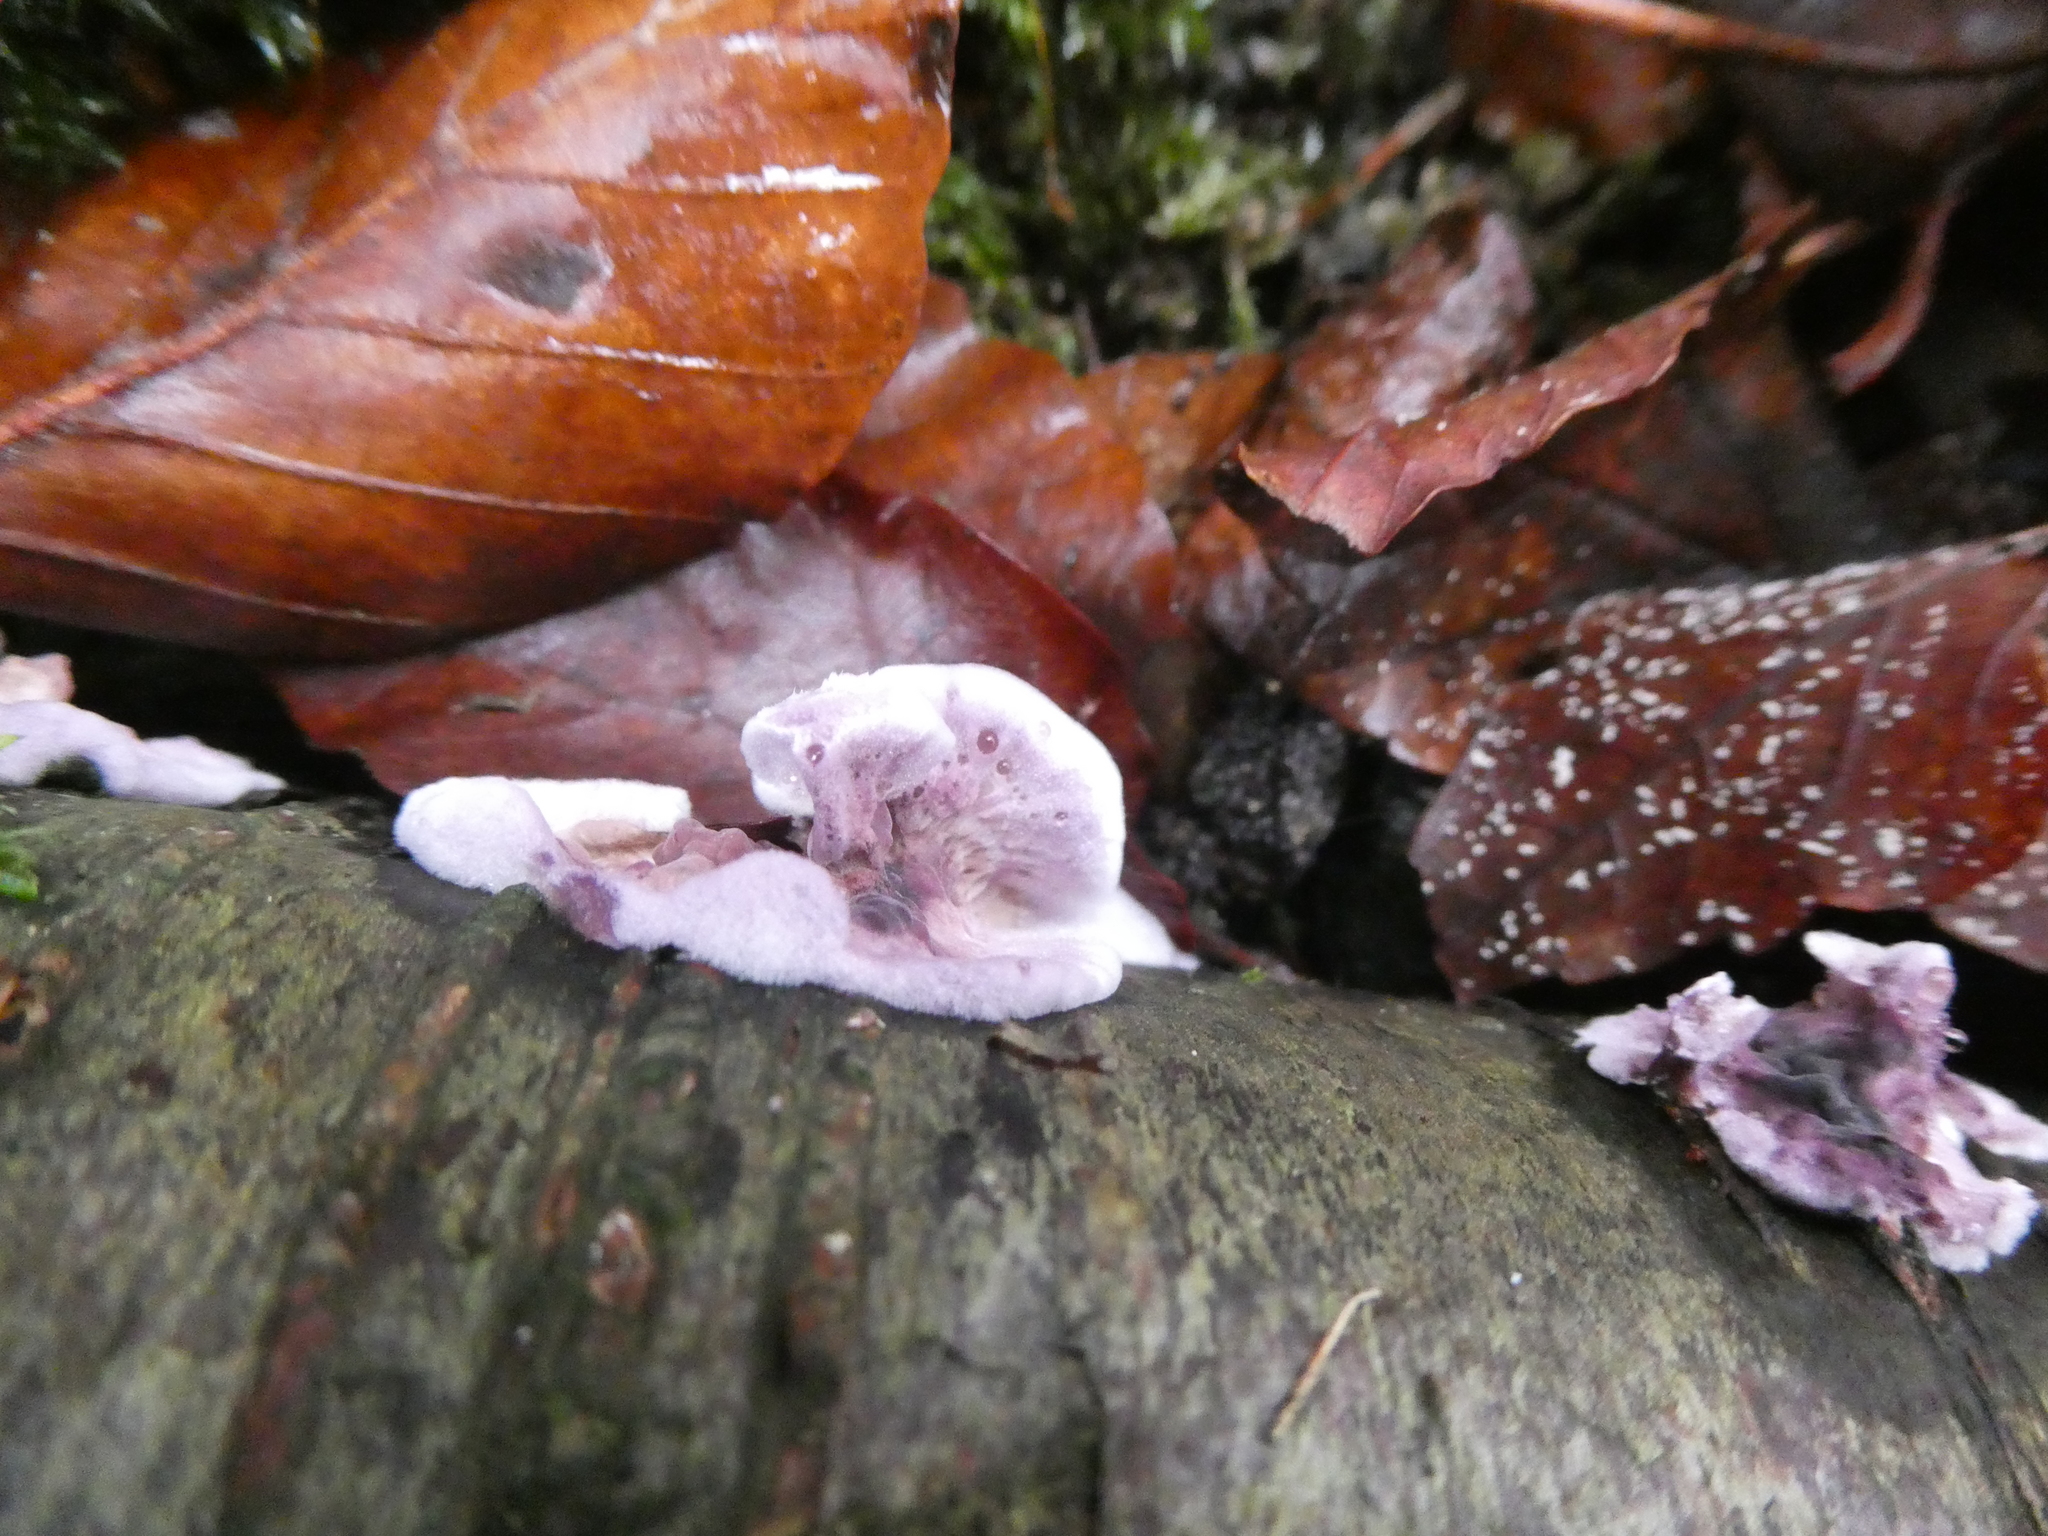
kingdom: Fungi
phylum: Basidiomycota
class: Agaricomycetes
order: Agaricales
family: Cyphellaceae
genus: Chondrostereum
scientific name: Chondrostereum purpureum
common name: Silver leaf disease
